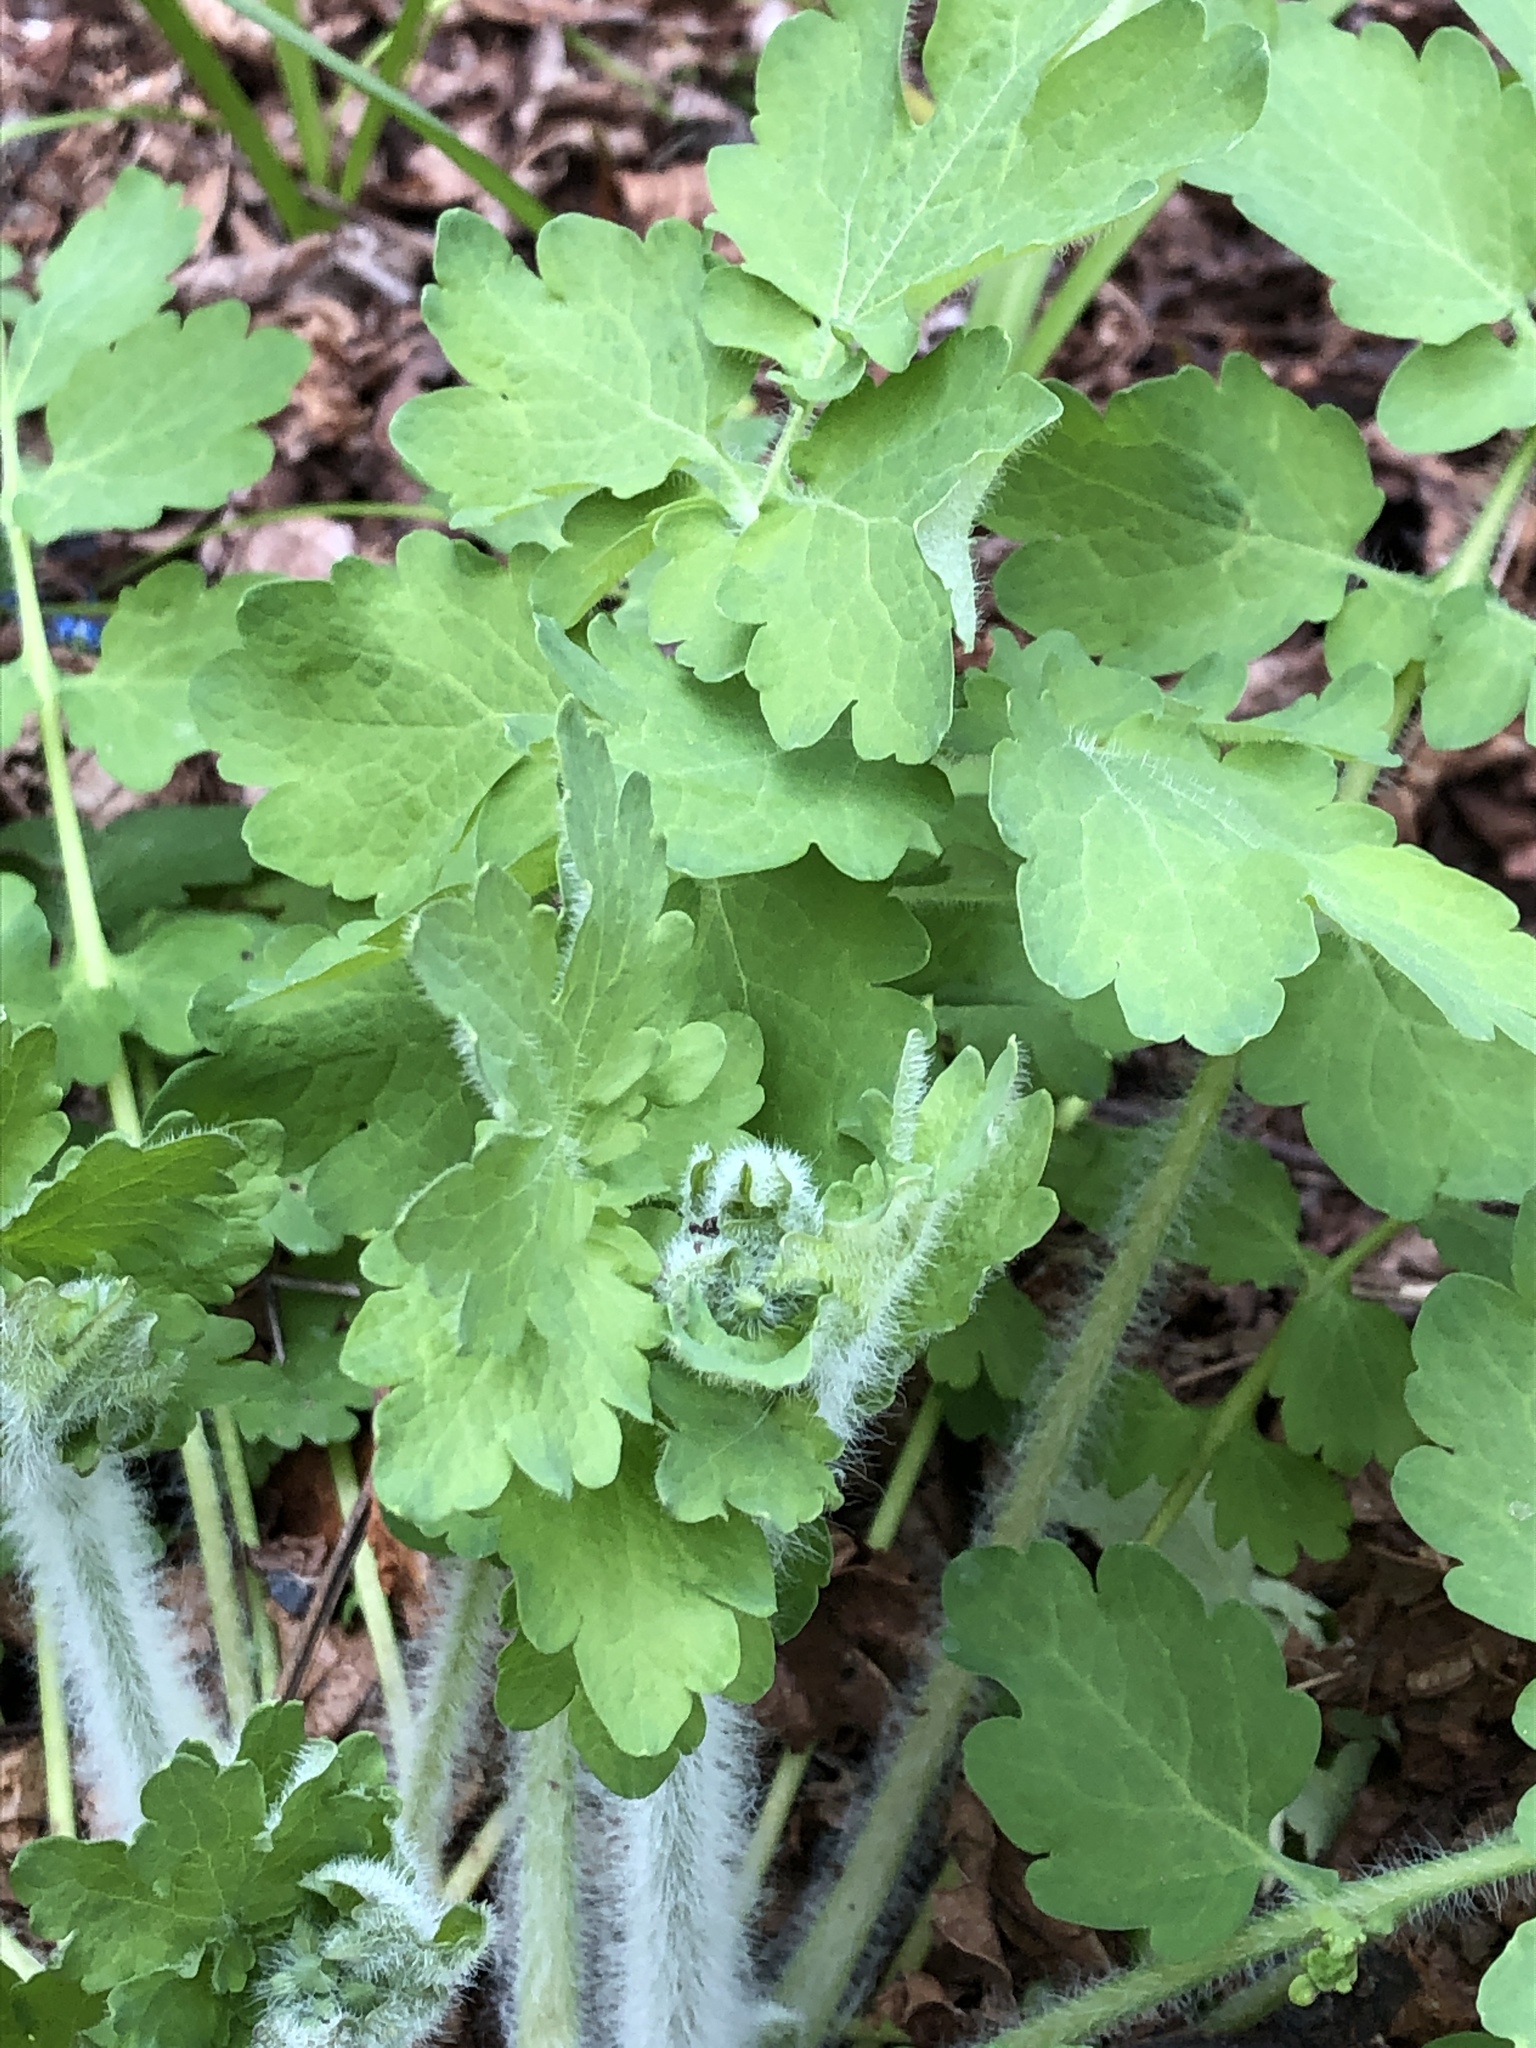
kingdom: Plantae
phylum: Tracheophyta
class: Magnoliopsida
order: Ranunculales
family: Papaveraceae
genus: Chelidonium
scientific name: Chelidonium majus
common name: Greater celandine
